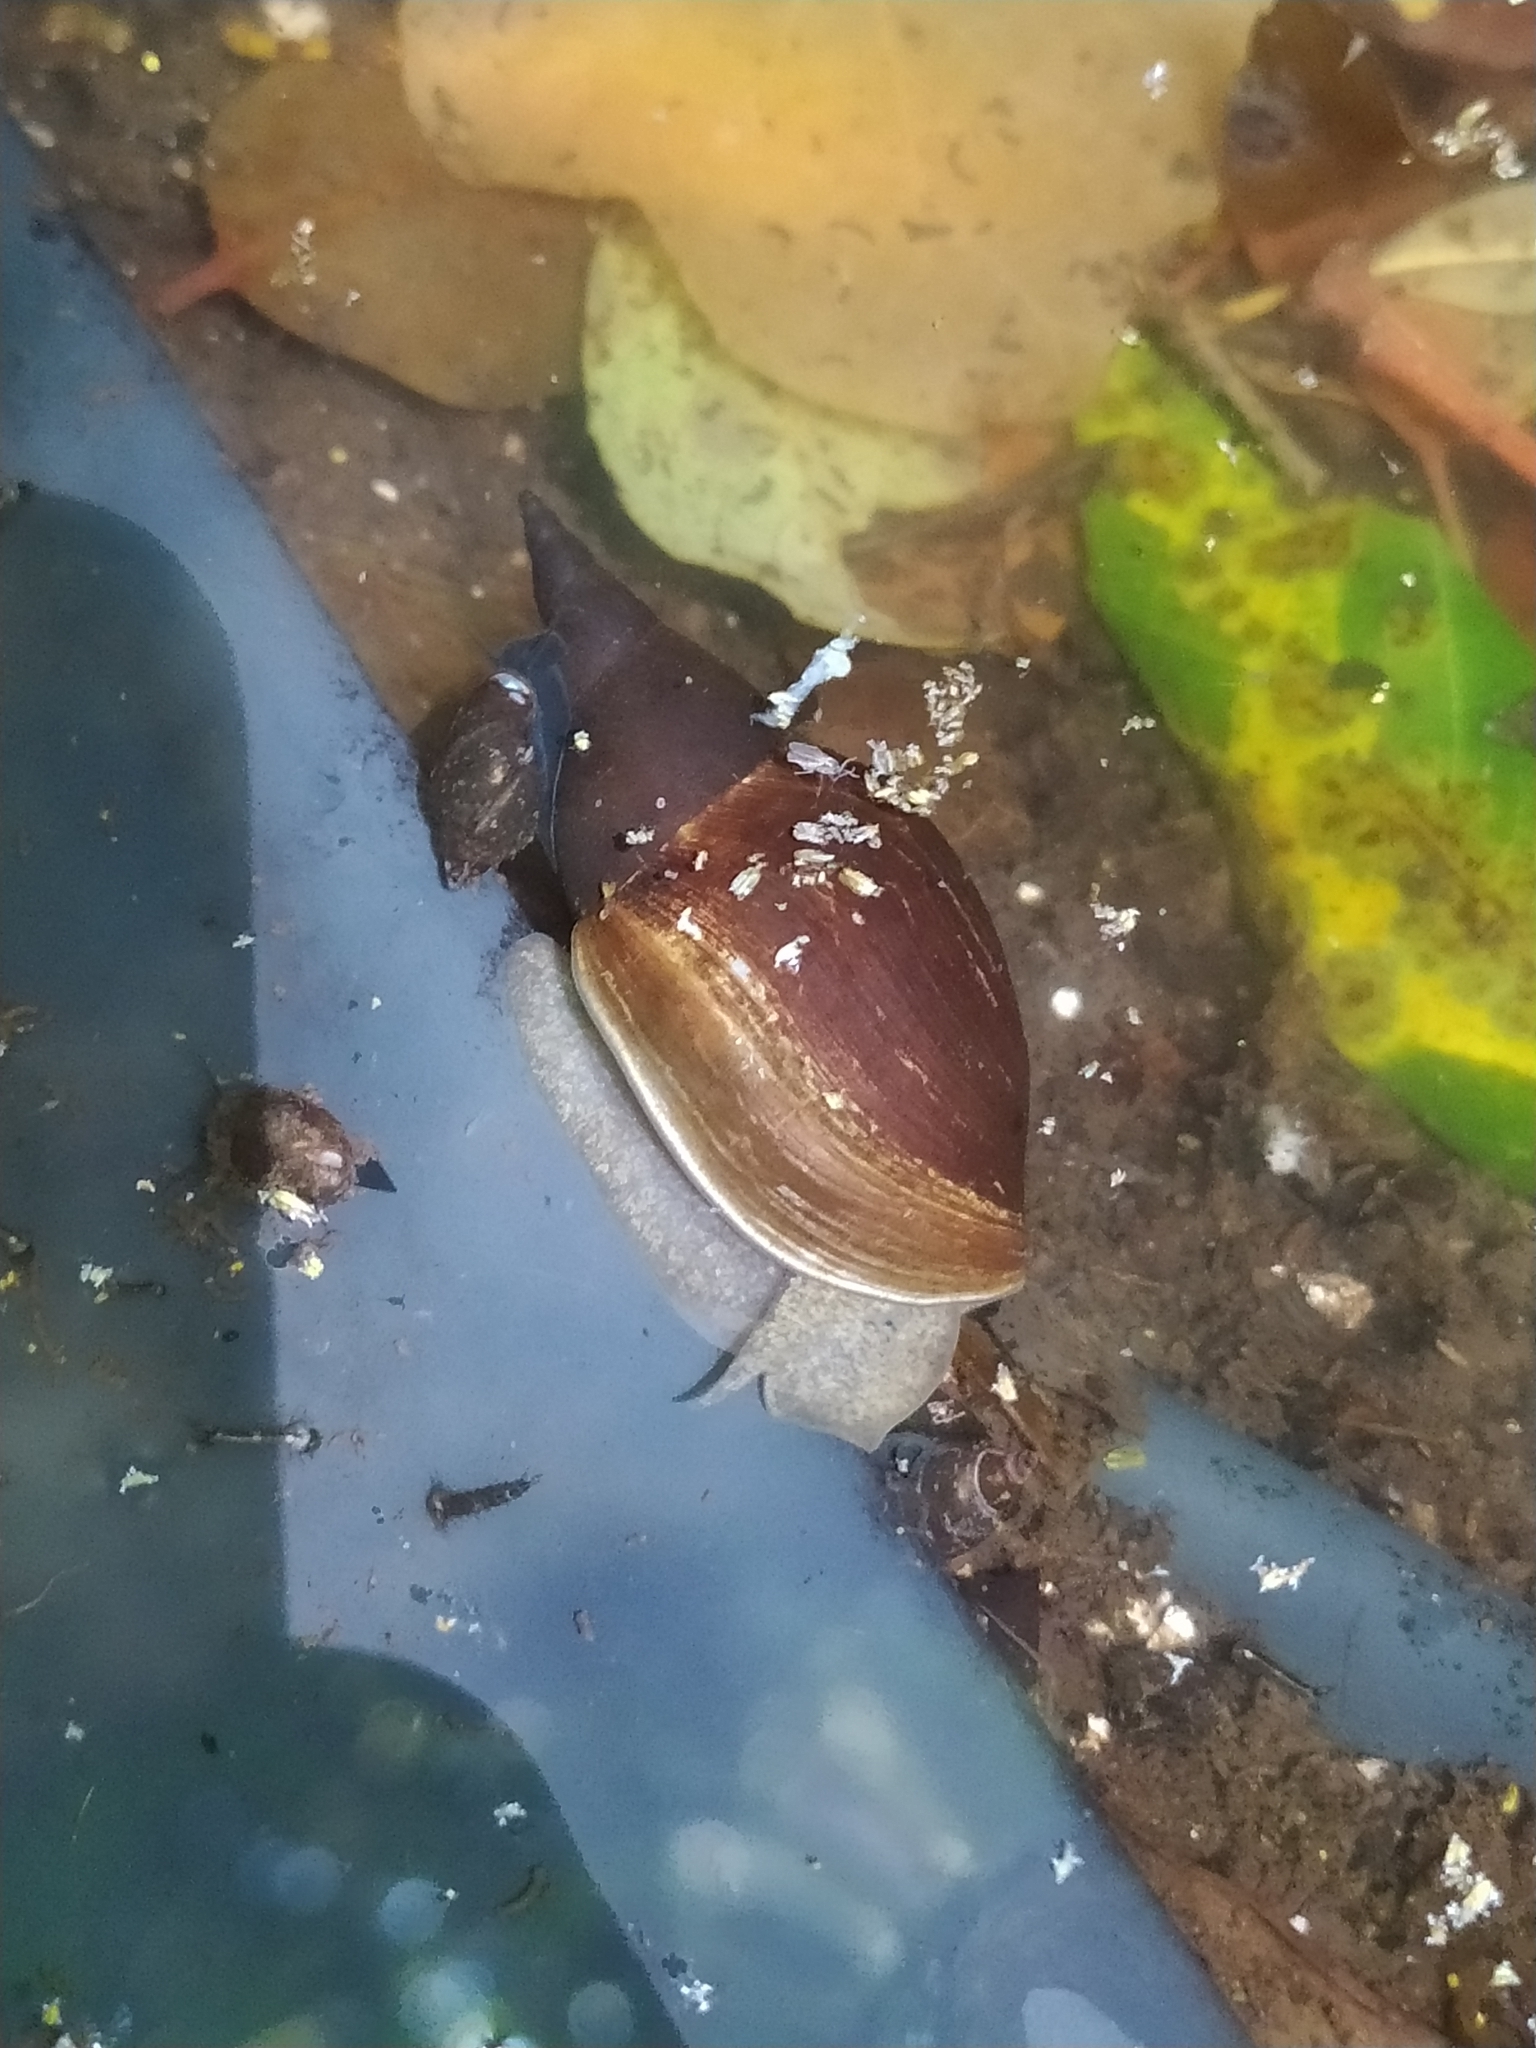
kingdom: Animalia
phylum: Mollusca
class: Gastropoda
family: Lymnaeidae
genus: Lymnaea
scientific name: Lymnaea stagnalis
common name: Great pond snail
